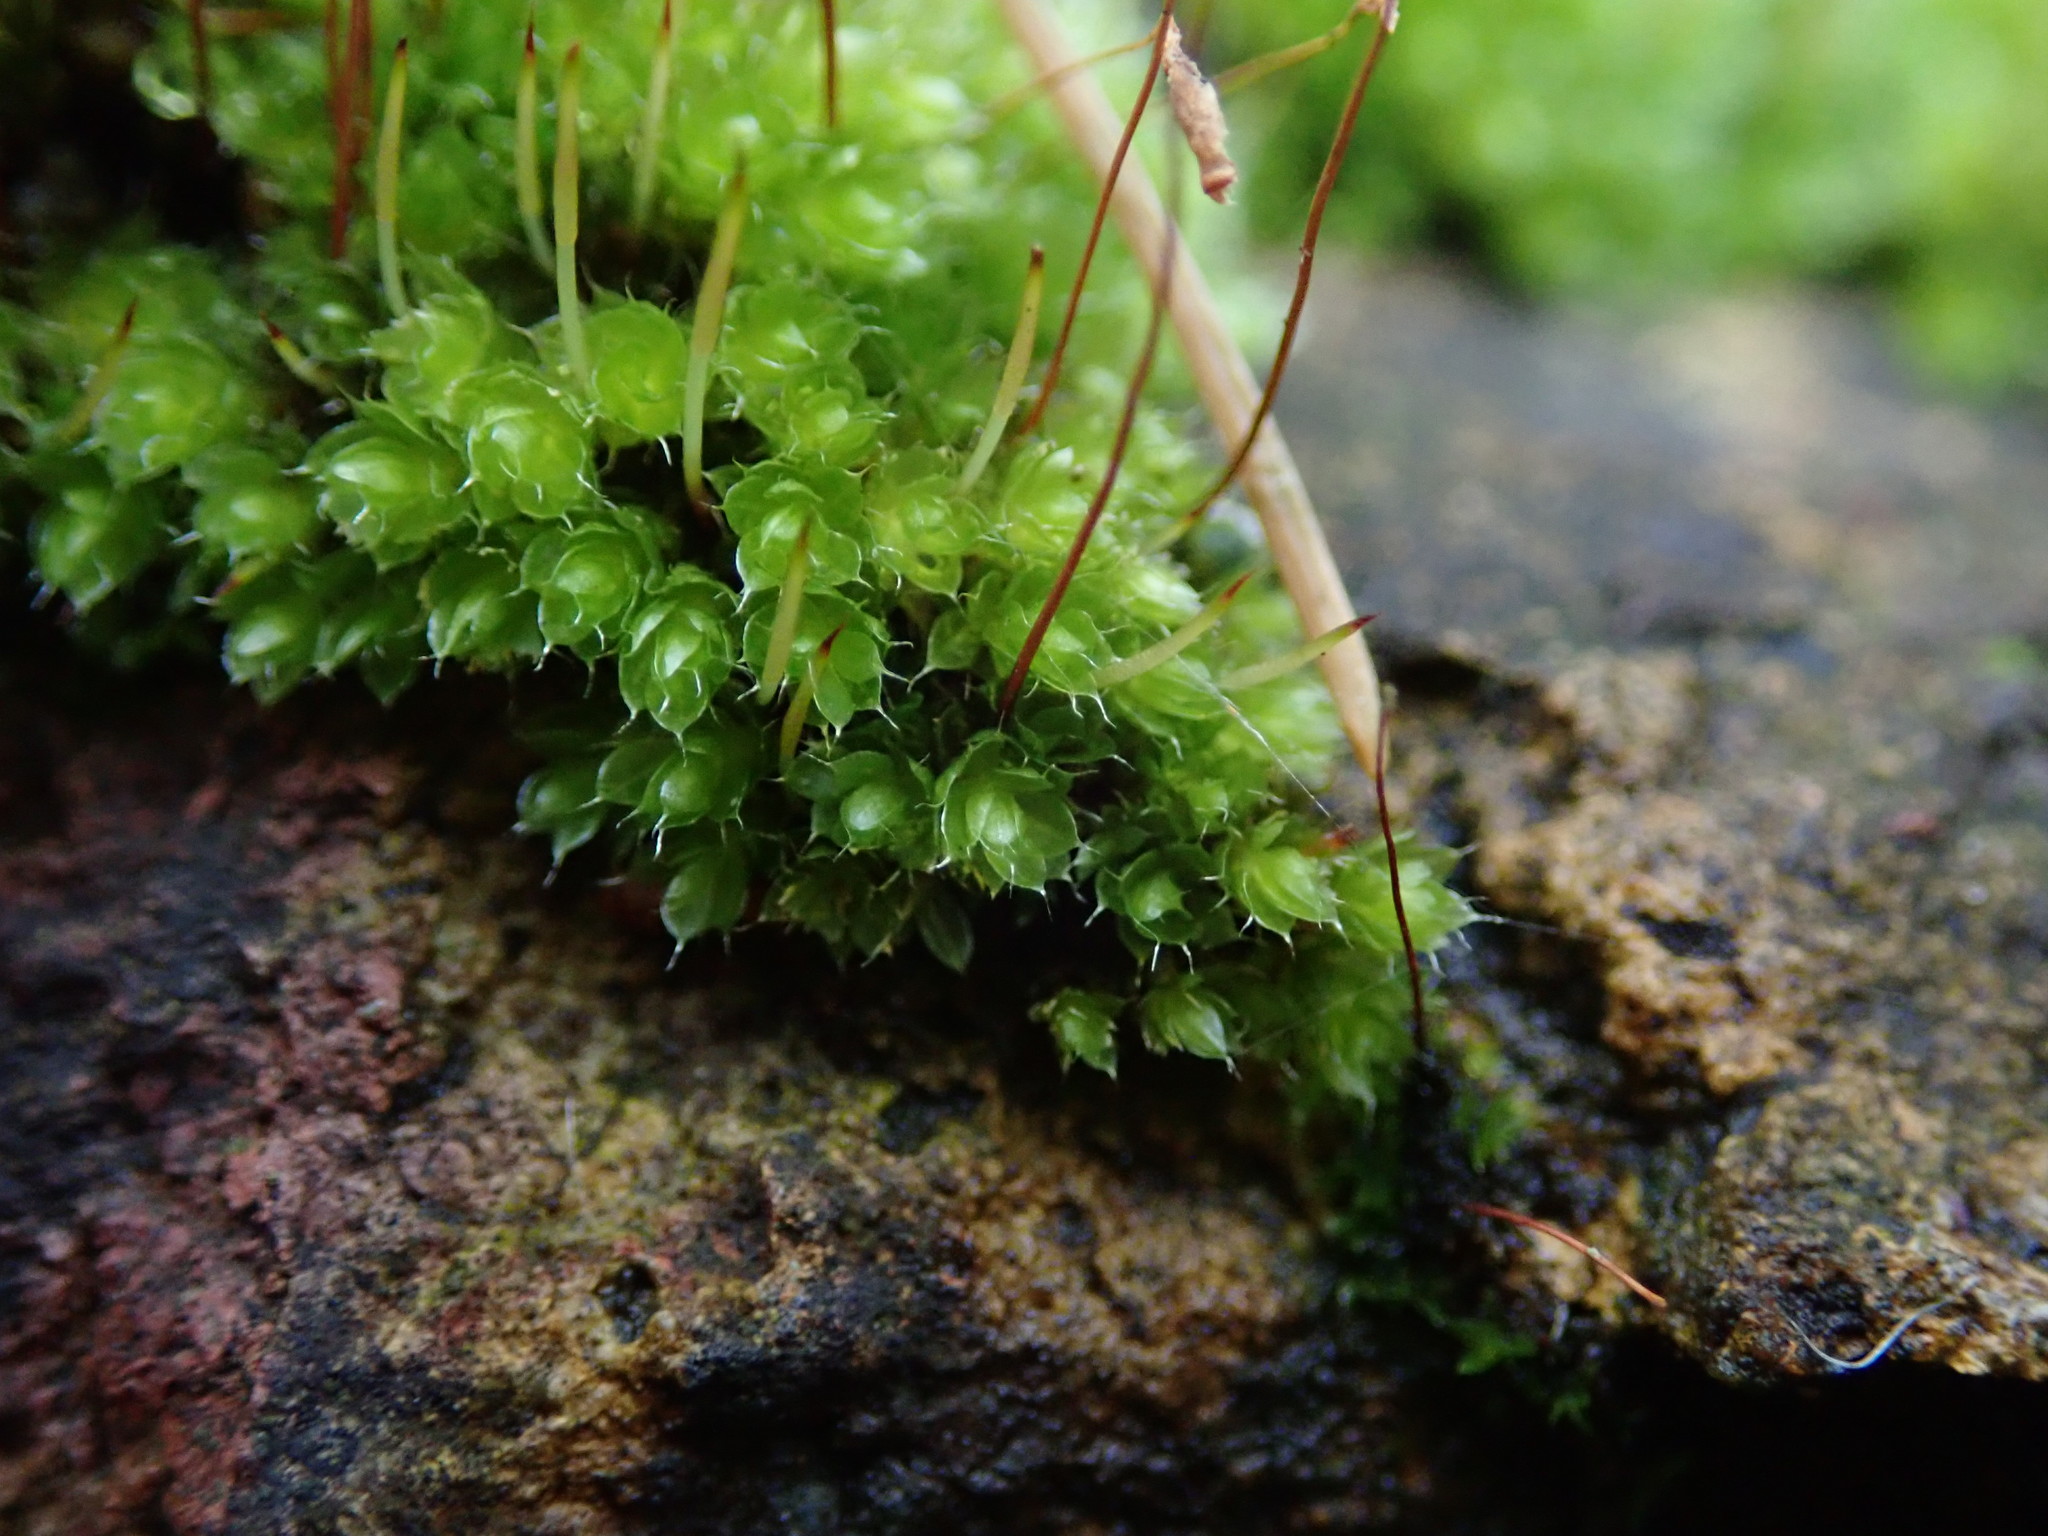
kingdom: Plantae
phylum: Bryophyta
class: Bryopsida
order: Bryales
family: Bryaceae
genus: Rosulabryum
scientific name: Rosulabryum capillare
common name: Capillary thread-moss
